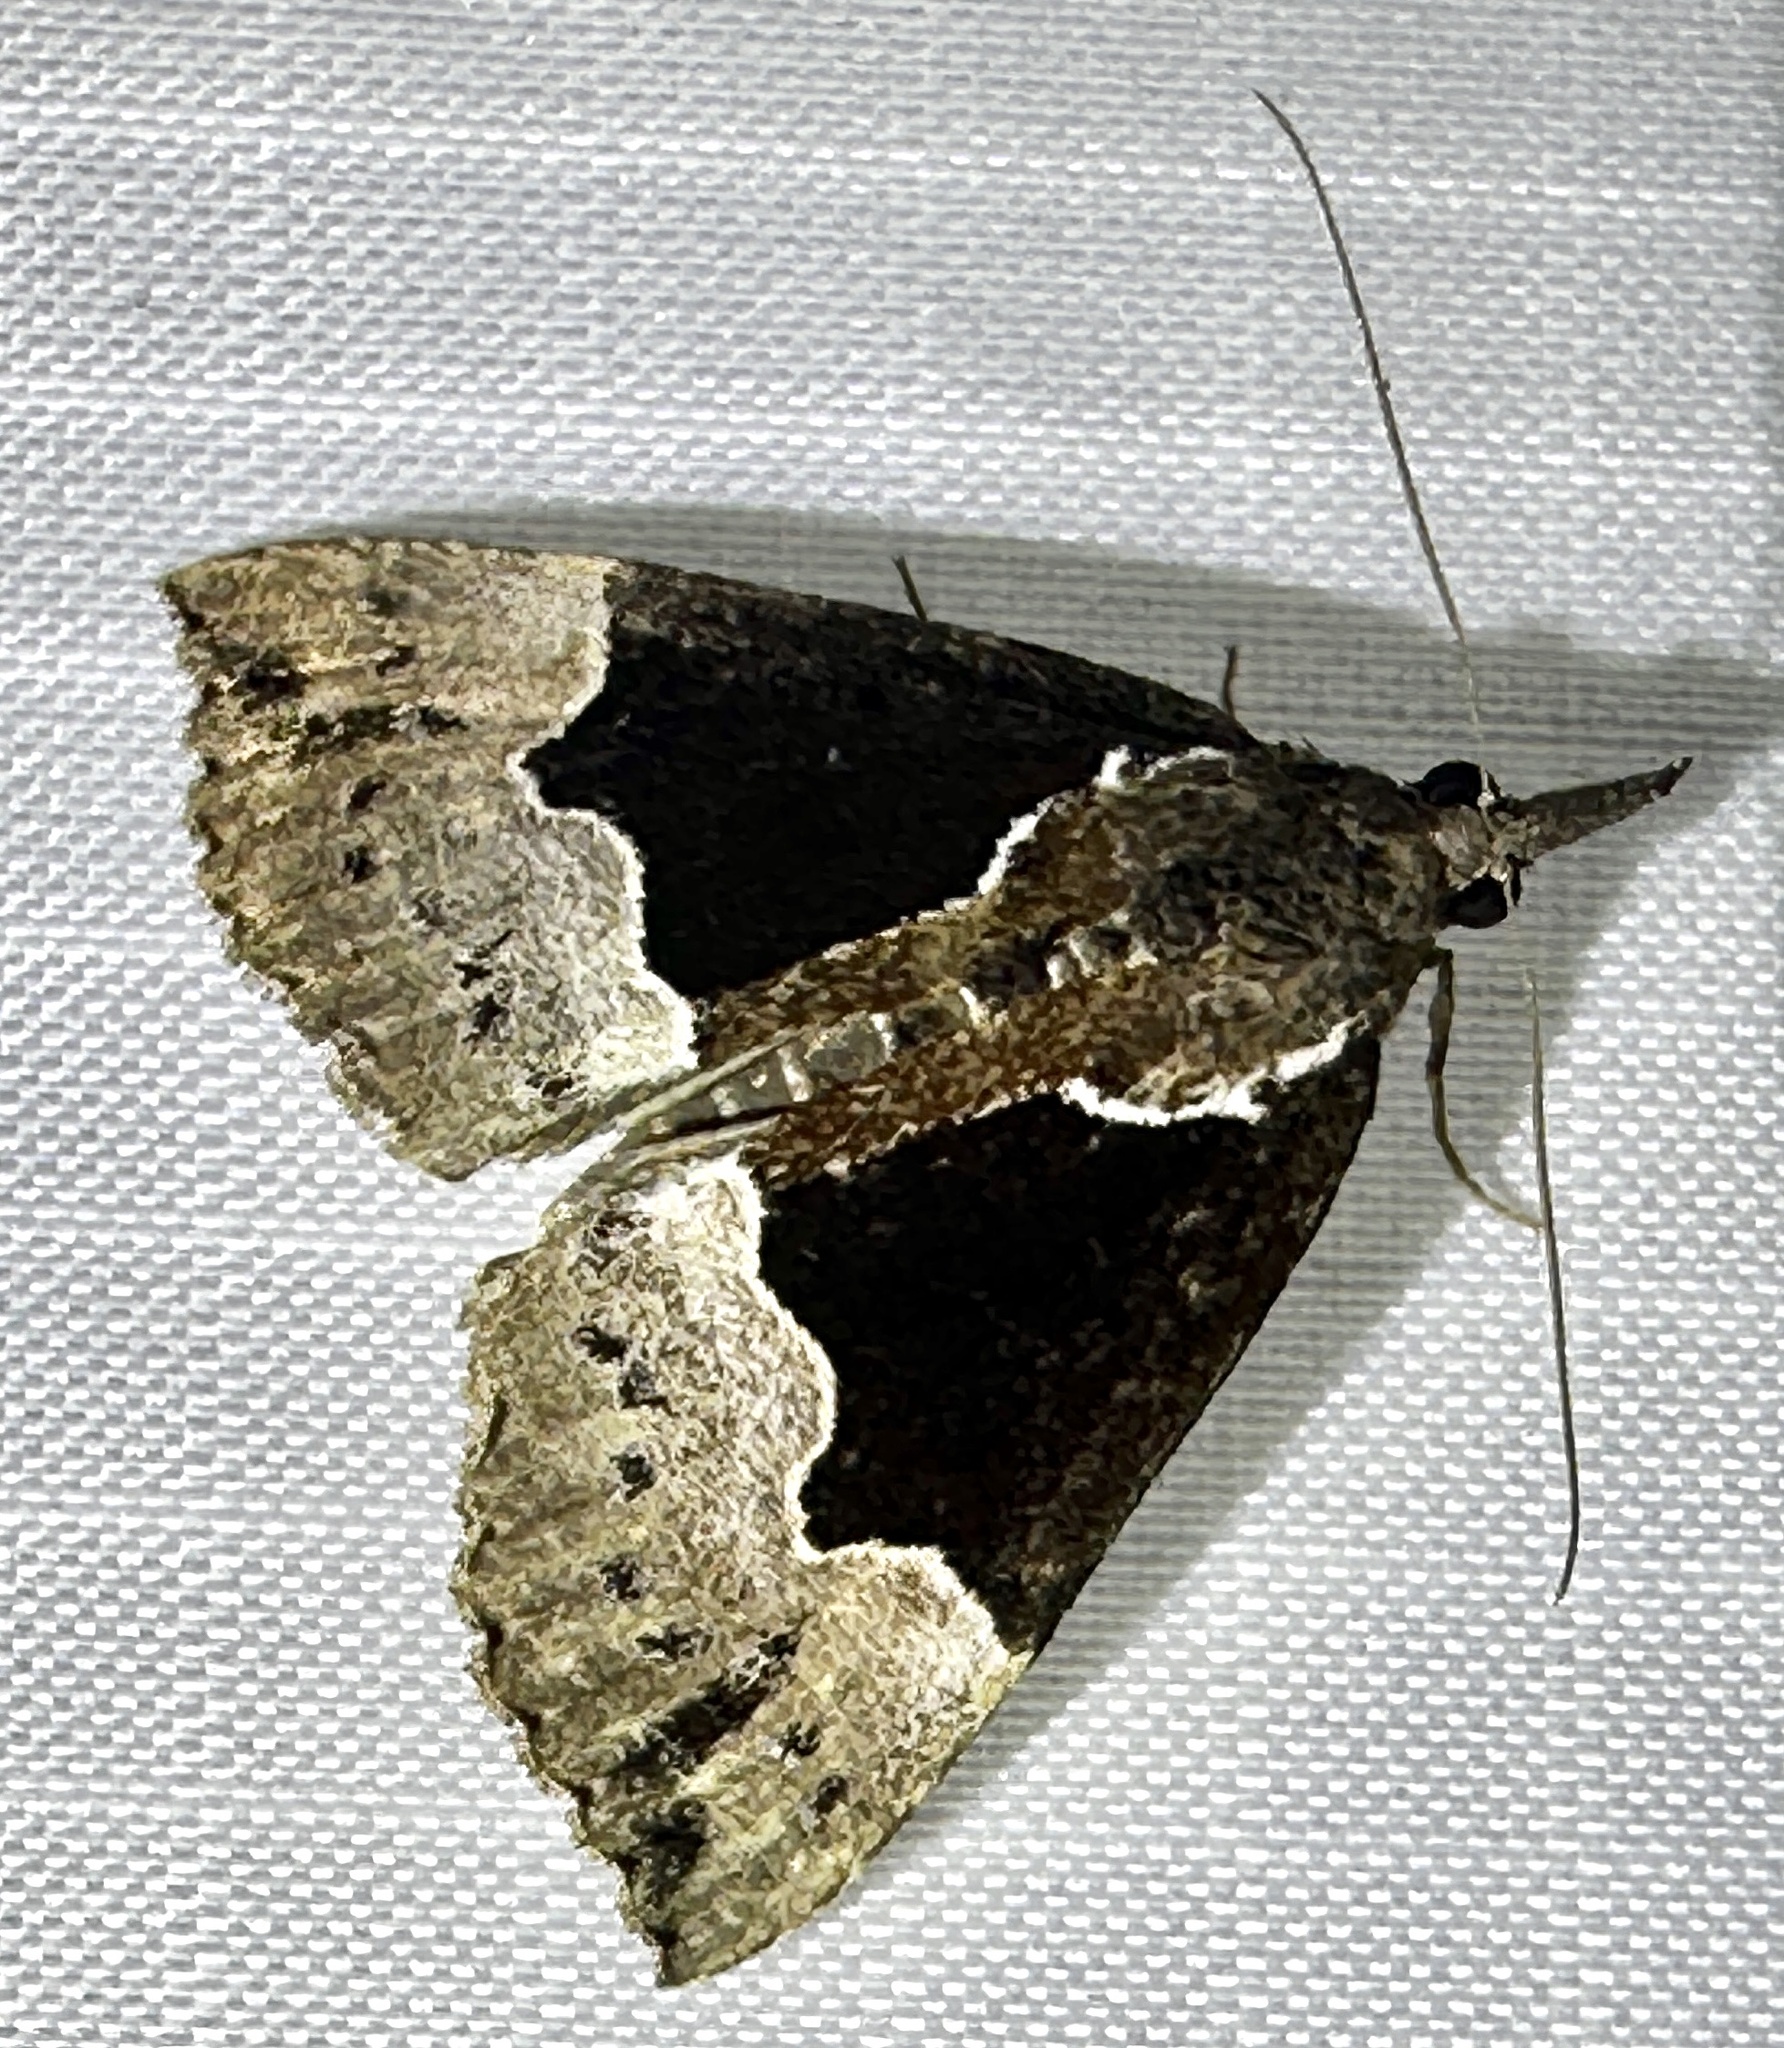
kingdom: Animalia
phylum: Arthropoda
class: Insecta
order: Lepidoptera
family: Erebidae
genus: Hypena
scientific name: Hypena bijugalis
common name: Dimorphic bomolocha moth
